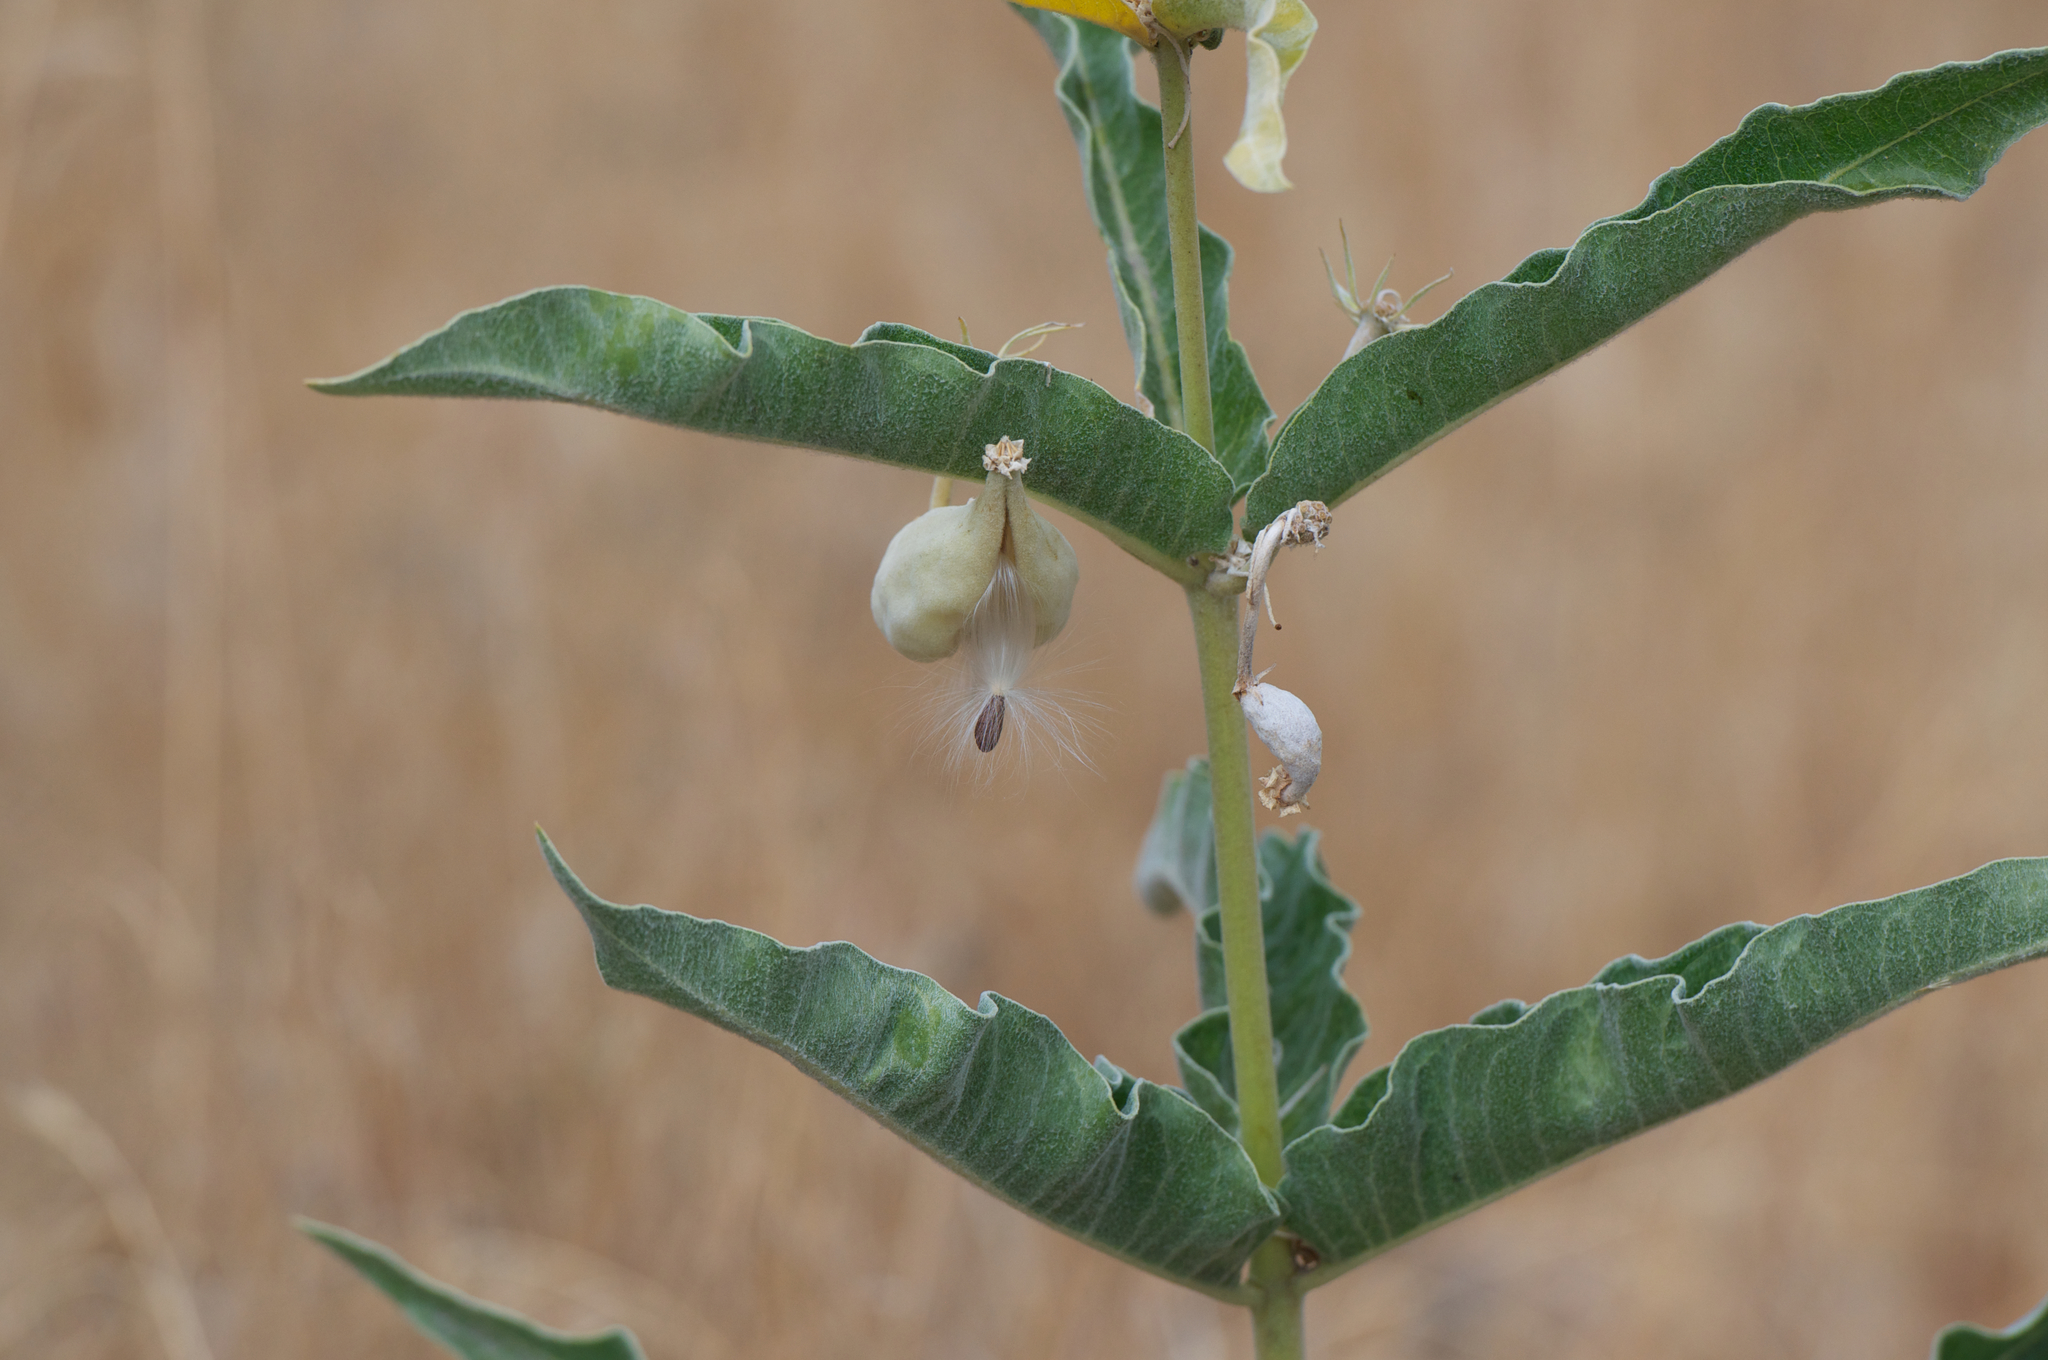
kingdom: Plantae
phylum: Tracheophyta
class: Magnoliopsida
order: Gentianales
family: Apocynaceae
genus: Asclepias
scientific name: Asclepias eriocarpa
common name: Indian milkweed
